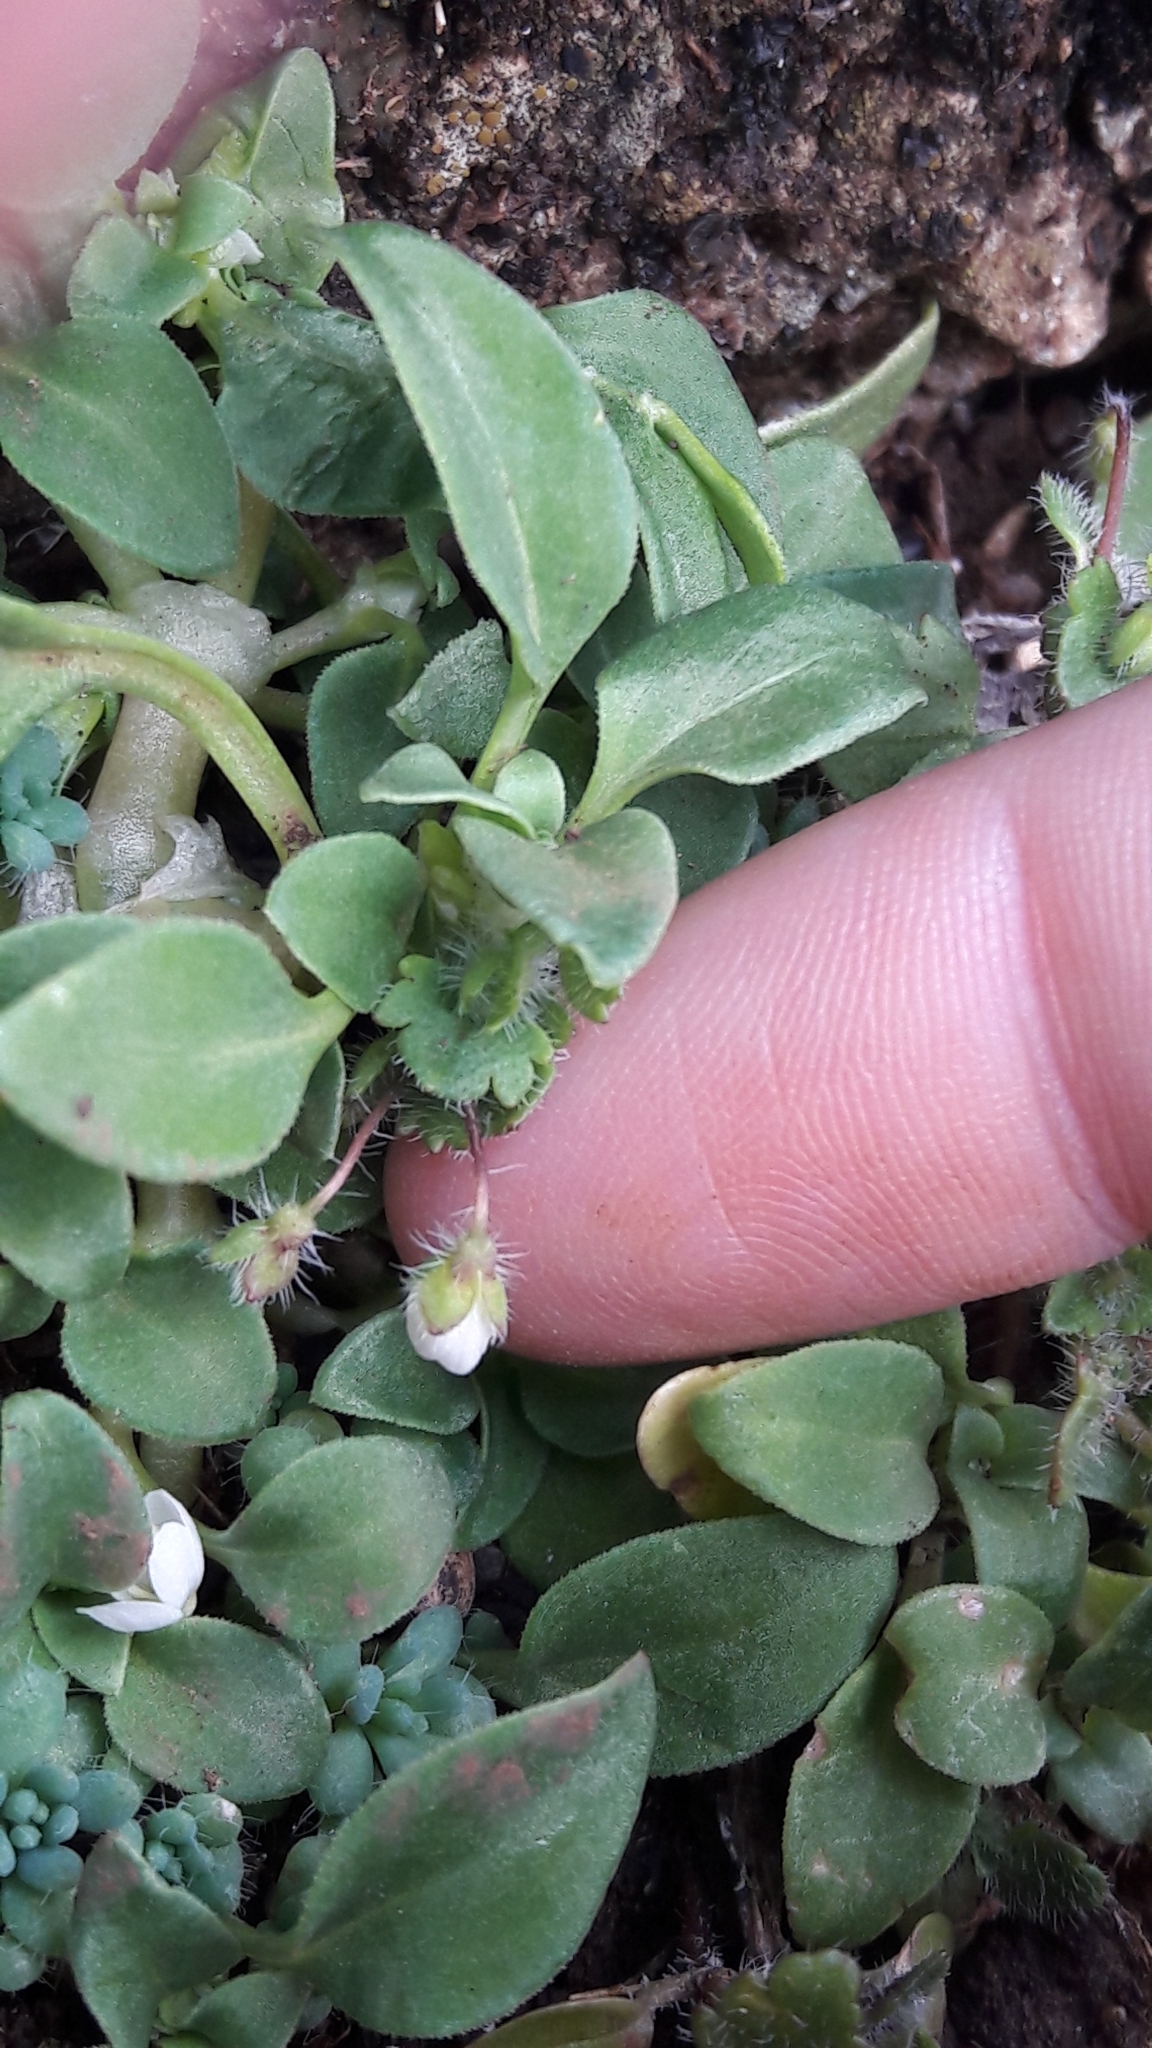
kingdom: Plantae
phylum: Tracheophyta
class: Magnoliopsida
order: Lamiales
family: Plantaginaceae
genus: Veronica
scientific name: Veronica cymbalaria
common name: Pale speedwell
